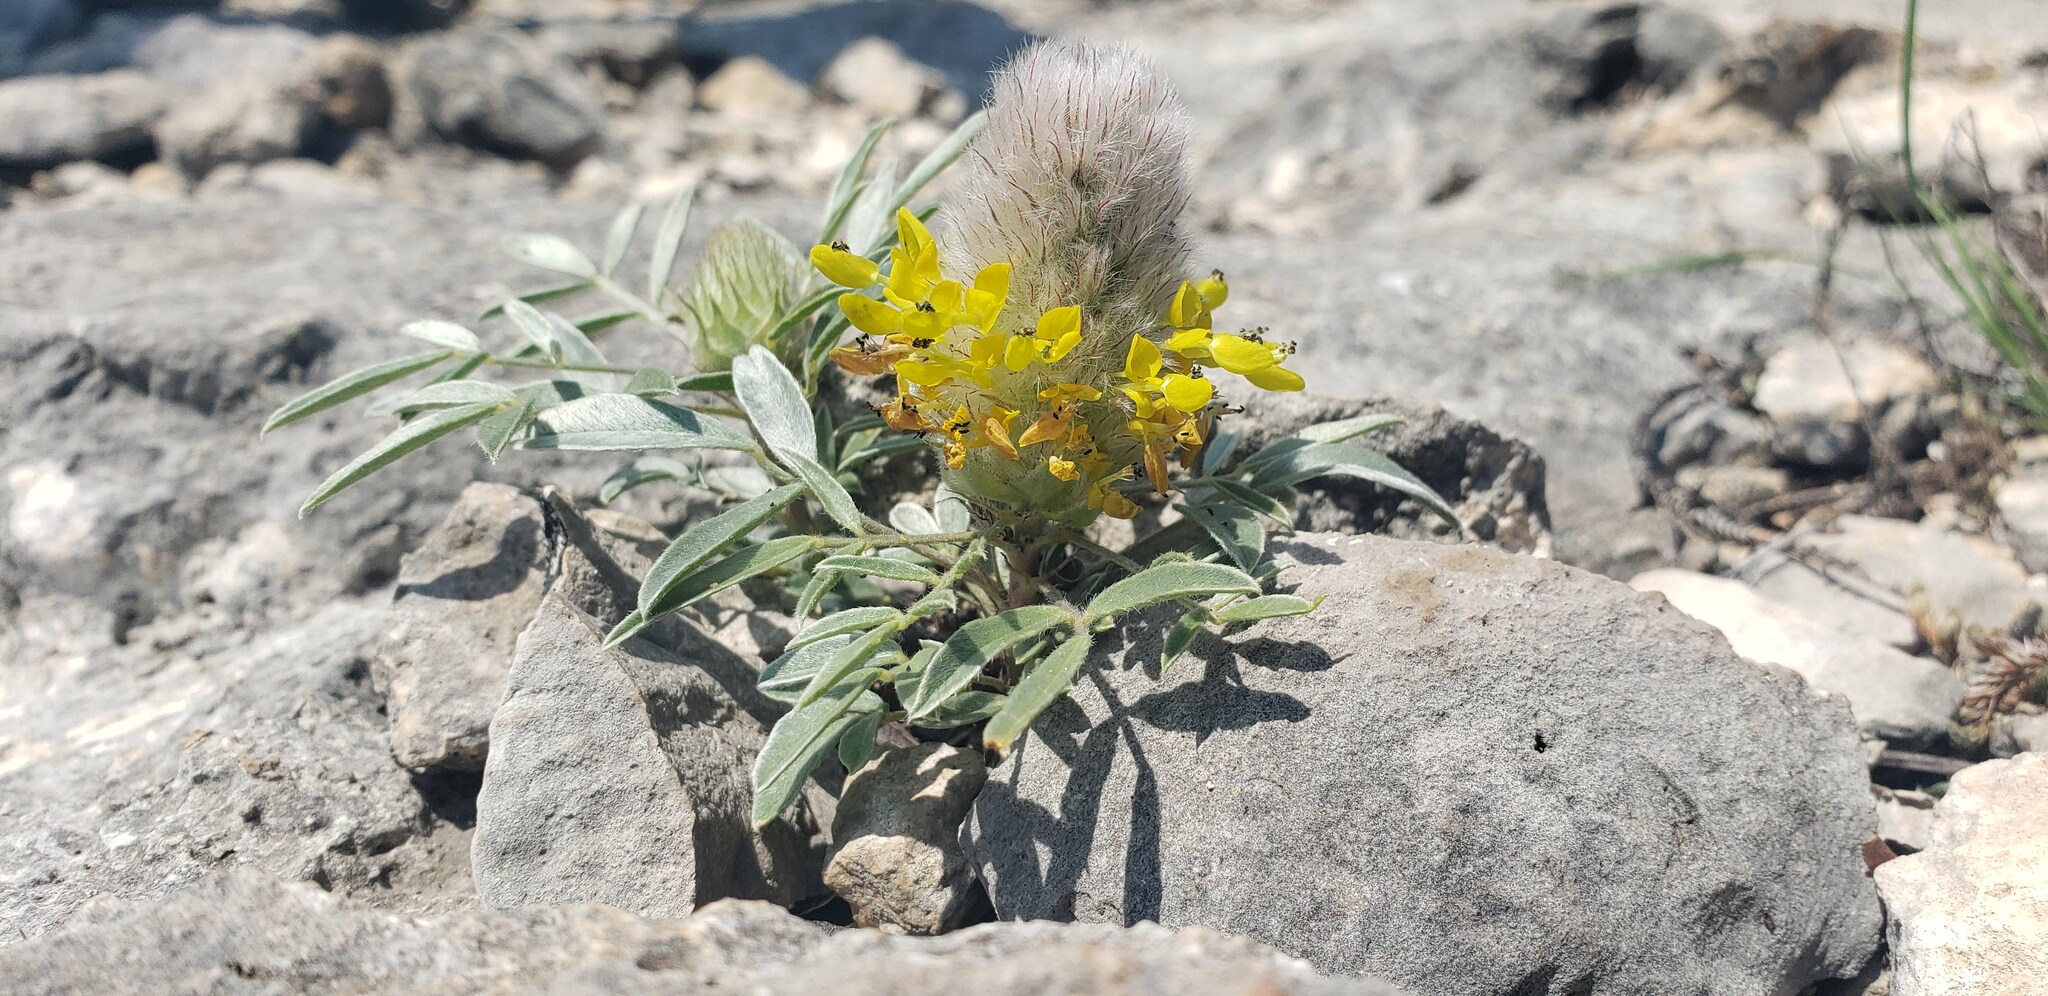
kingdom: Plantae
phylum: Tracheophyta
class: Magnoliopsida
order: Fabales
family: Fabaceae
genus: Dalea
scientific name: Dalea nana
